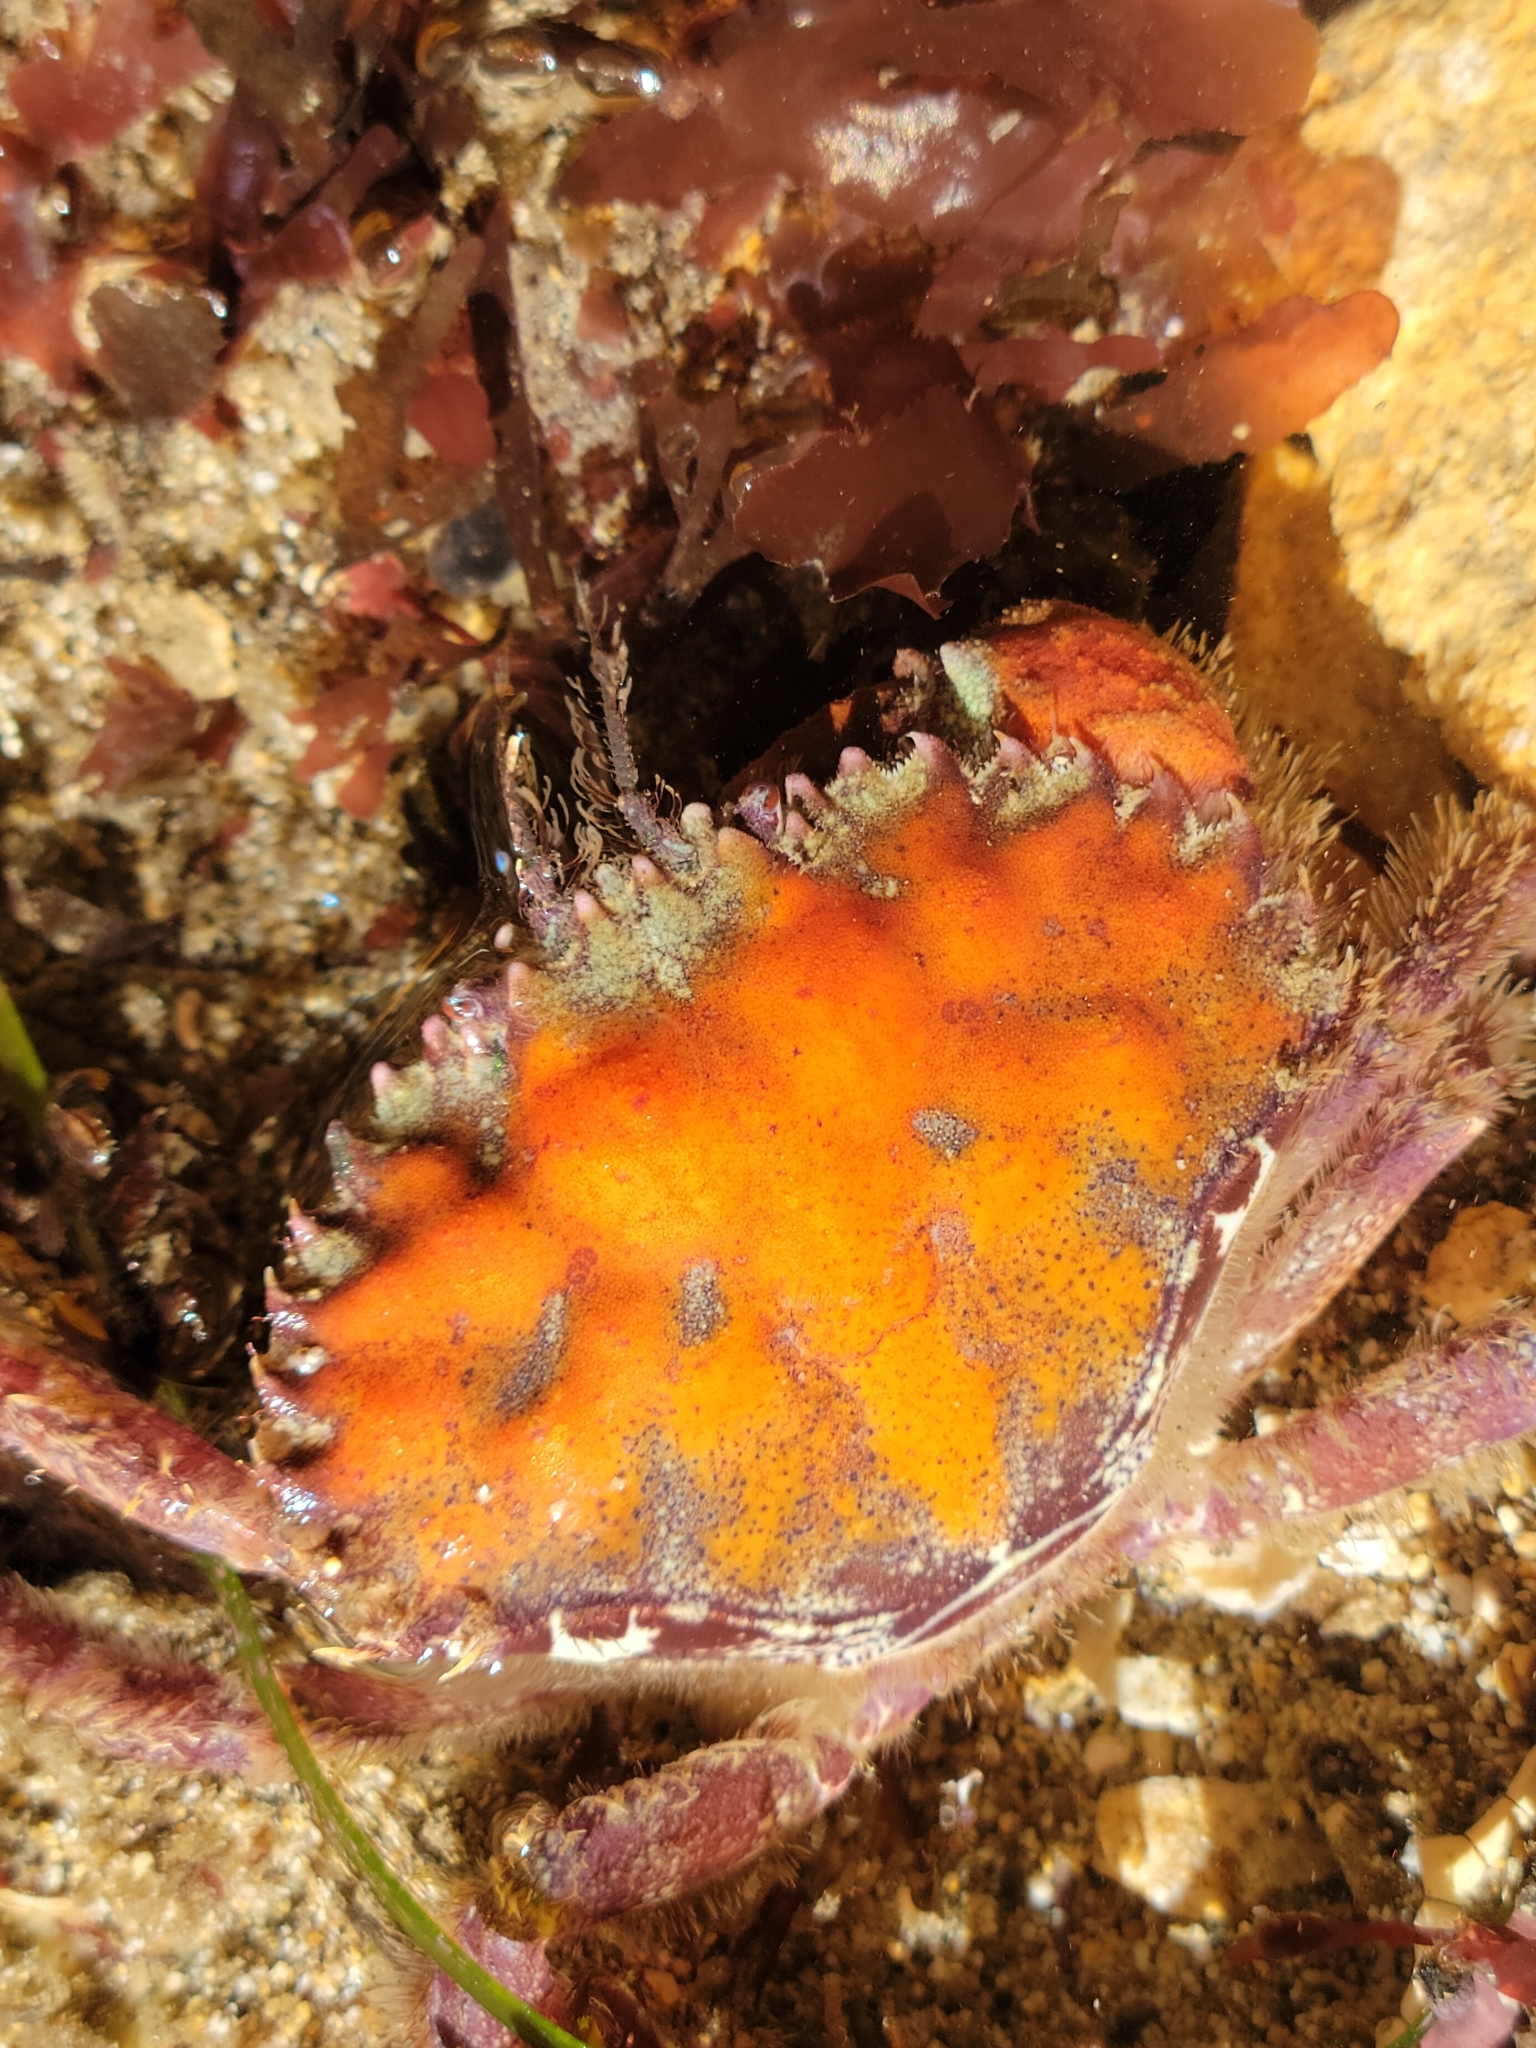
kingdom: Animalia
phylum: Arthropoda
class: Malacostraca
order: Decapoda
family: Cancridae
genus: Romaleon
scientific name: Romaleon antennarium
